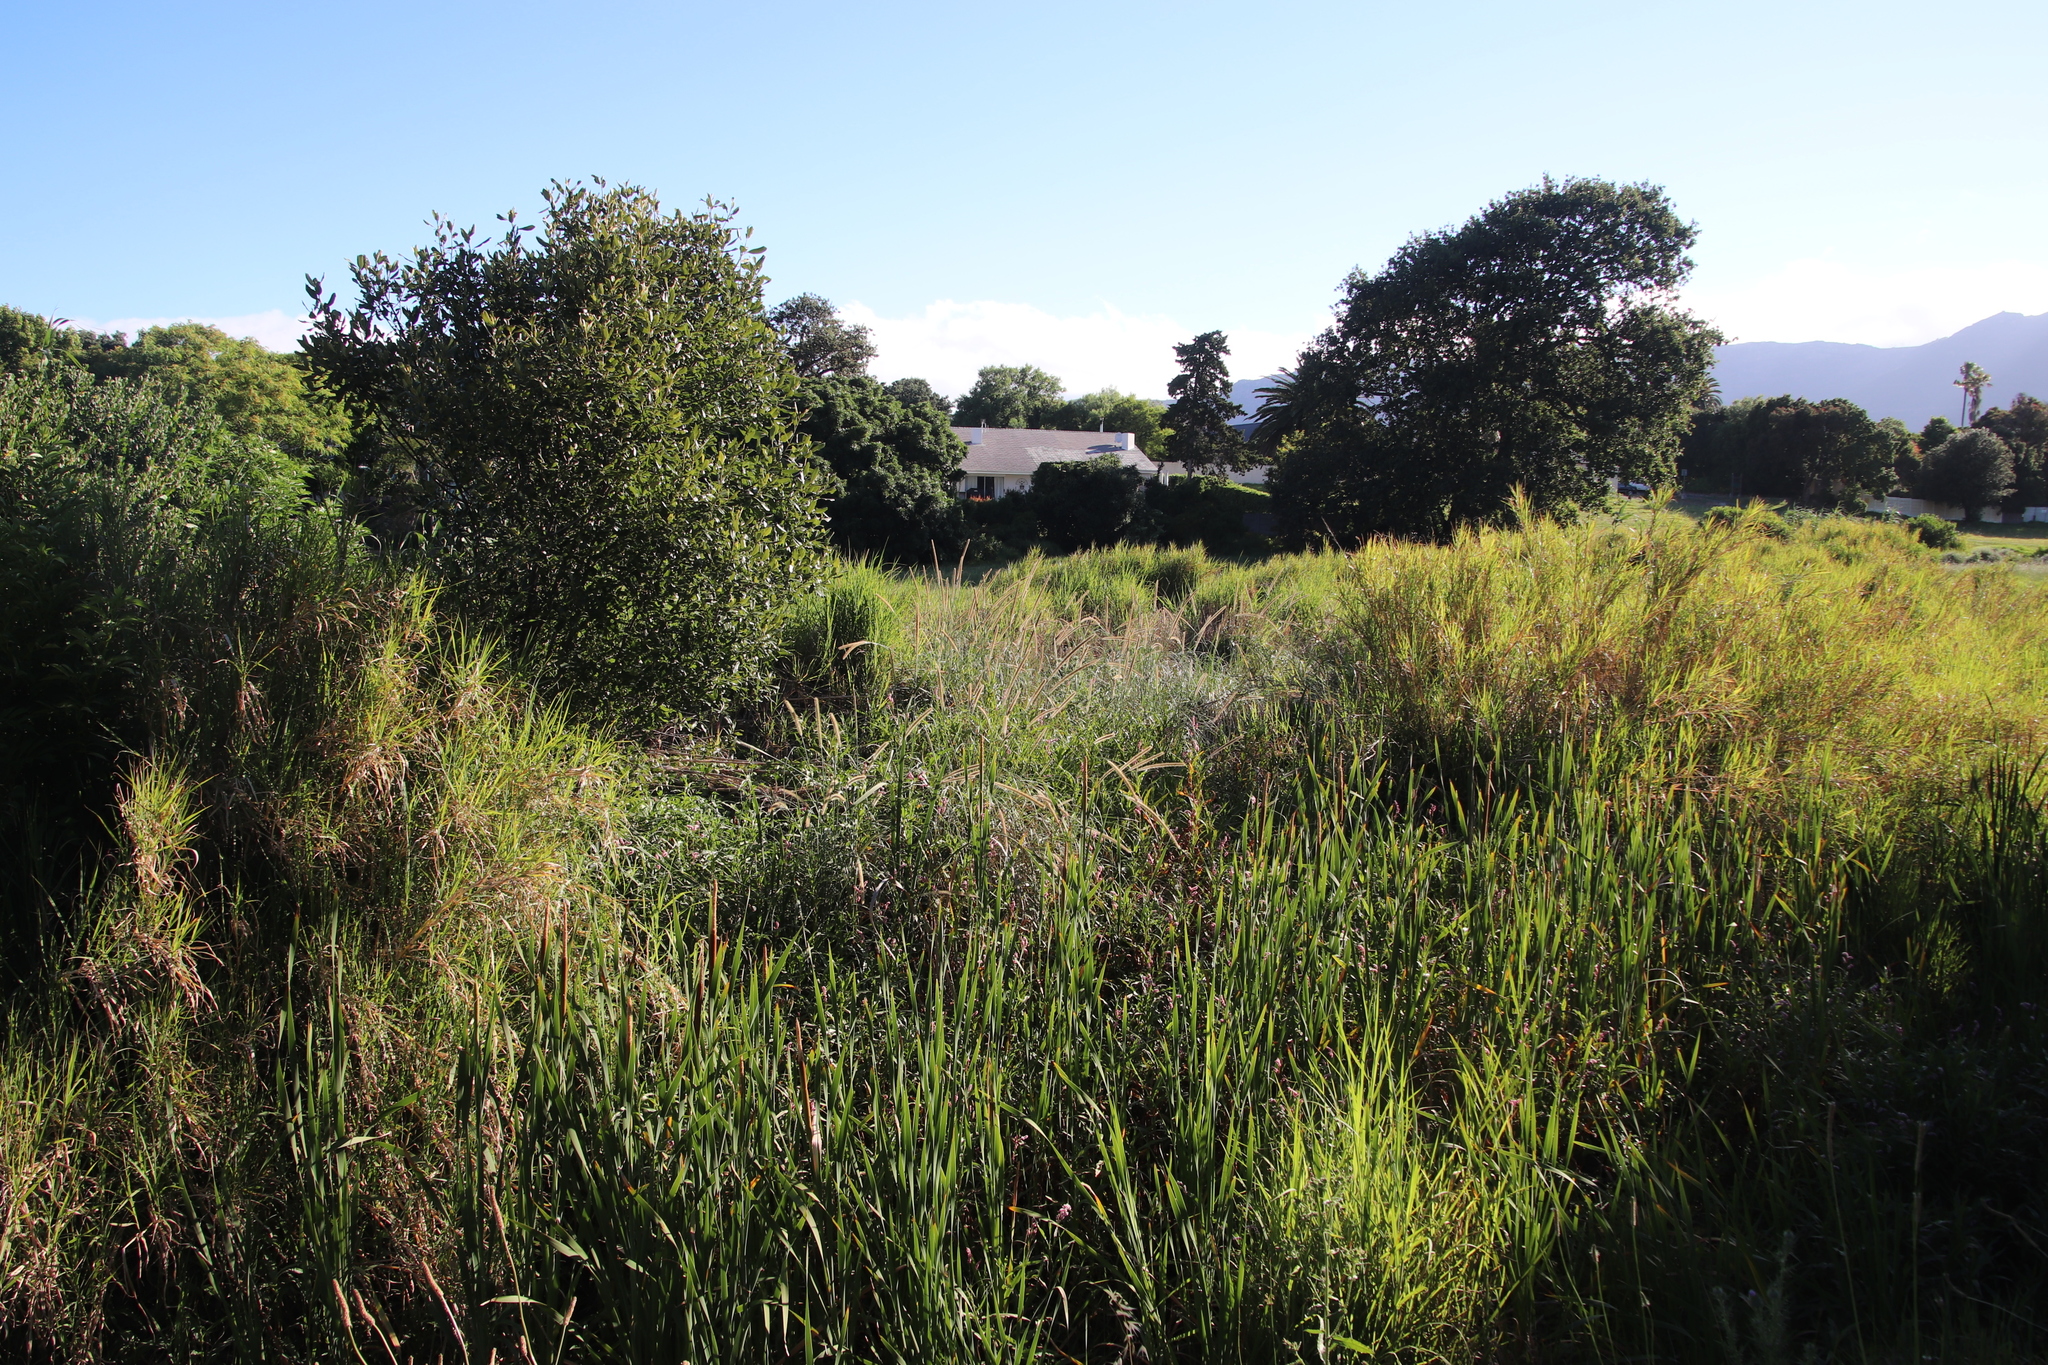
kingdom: Plantae
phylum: Tracheophyta
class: Liliopsida
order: Poales
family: Poaceae
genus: Cenchrus
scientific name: Cenchrus caudatus
